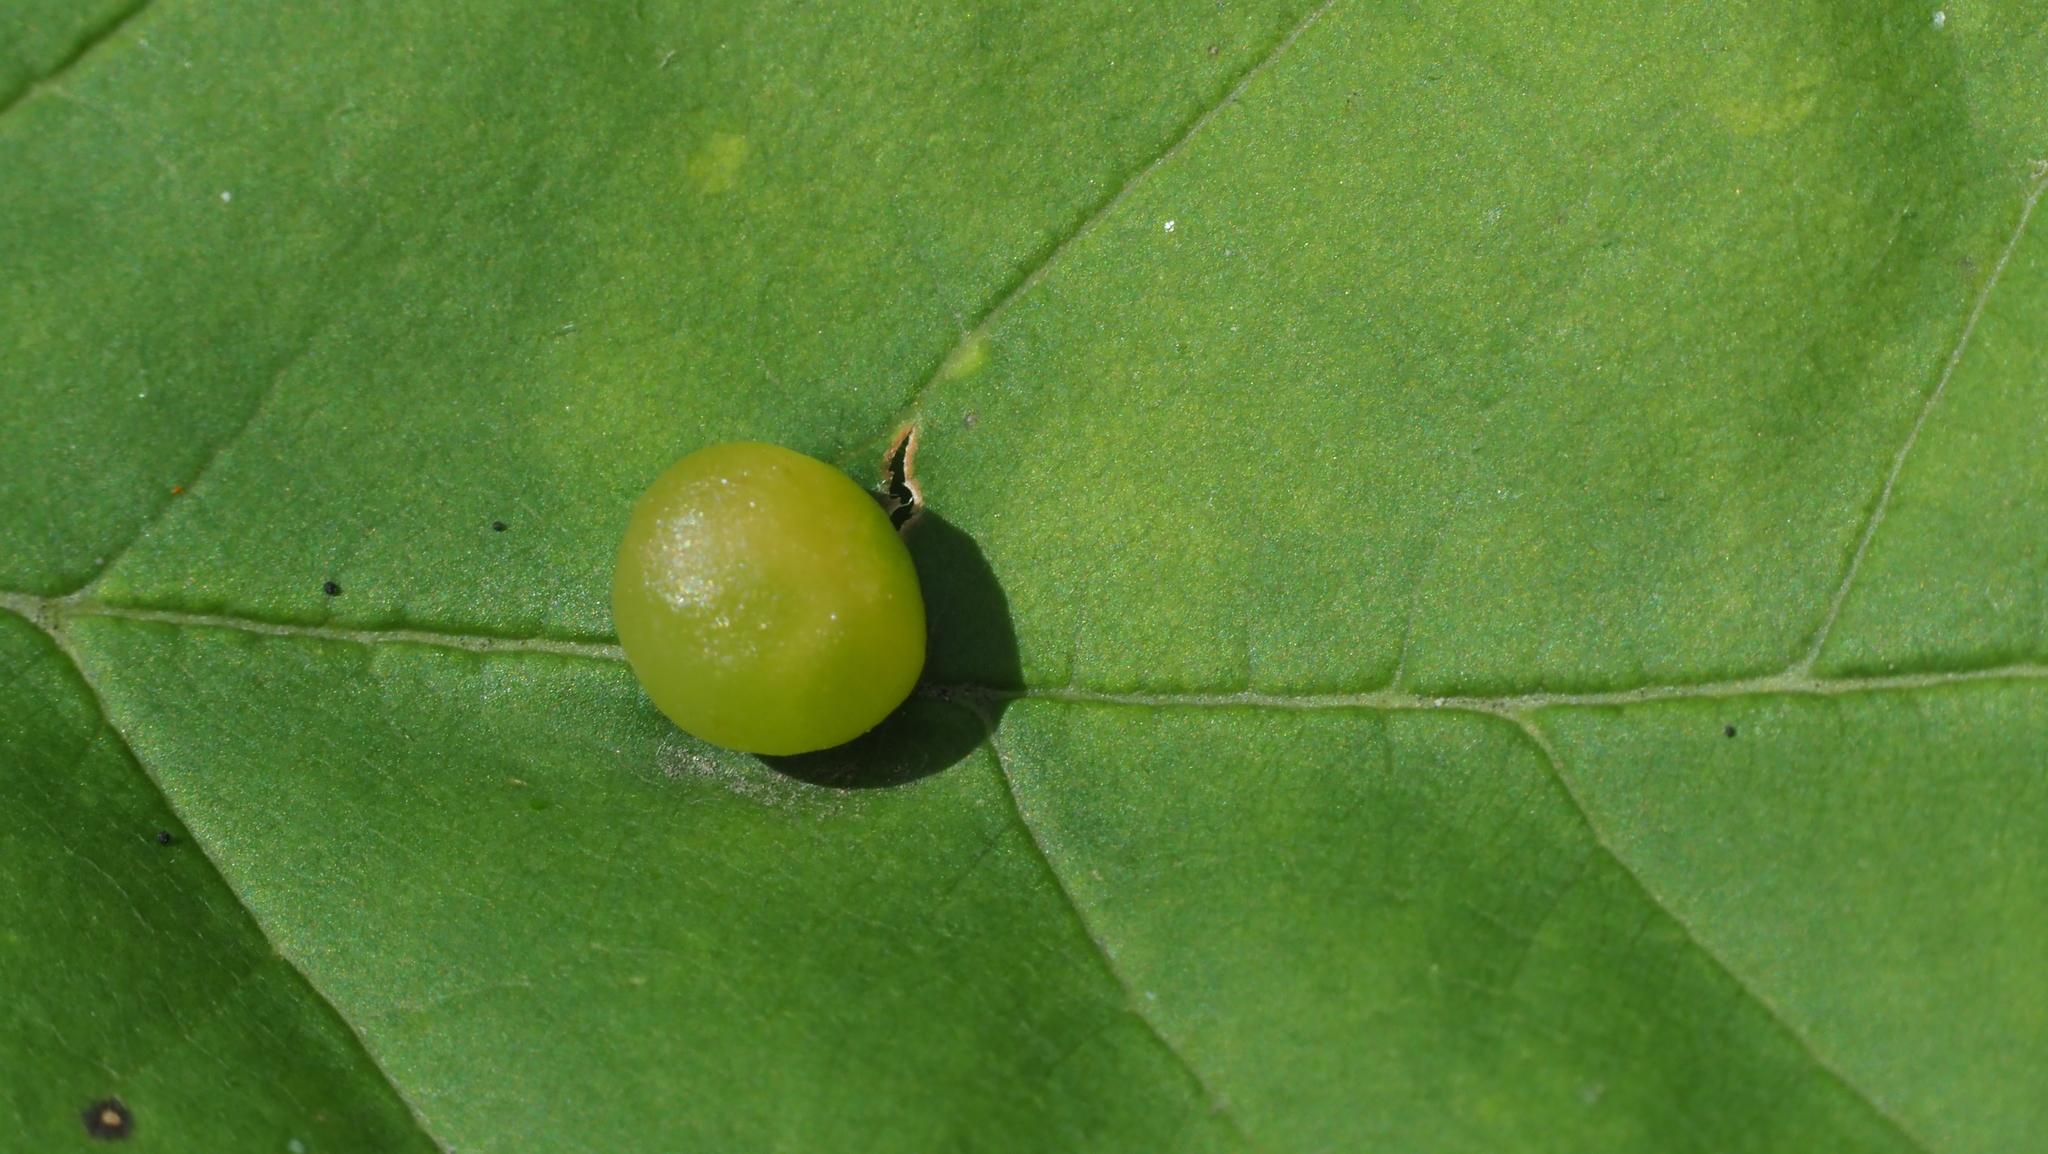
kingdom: Animalia
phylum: Arthropoda
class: Insecta
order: Diptera
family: Cecidomyiidae
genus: Dasineura
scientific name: Dasineura pellex
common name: Ash bullet gall midge
